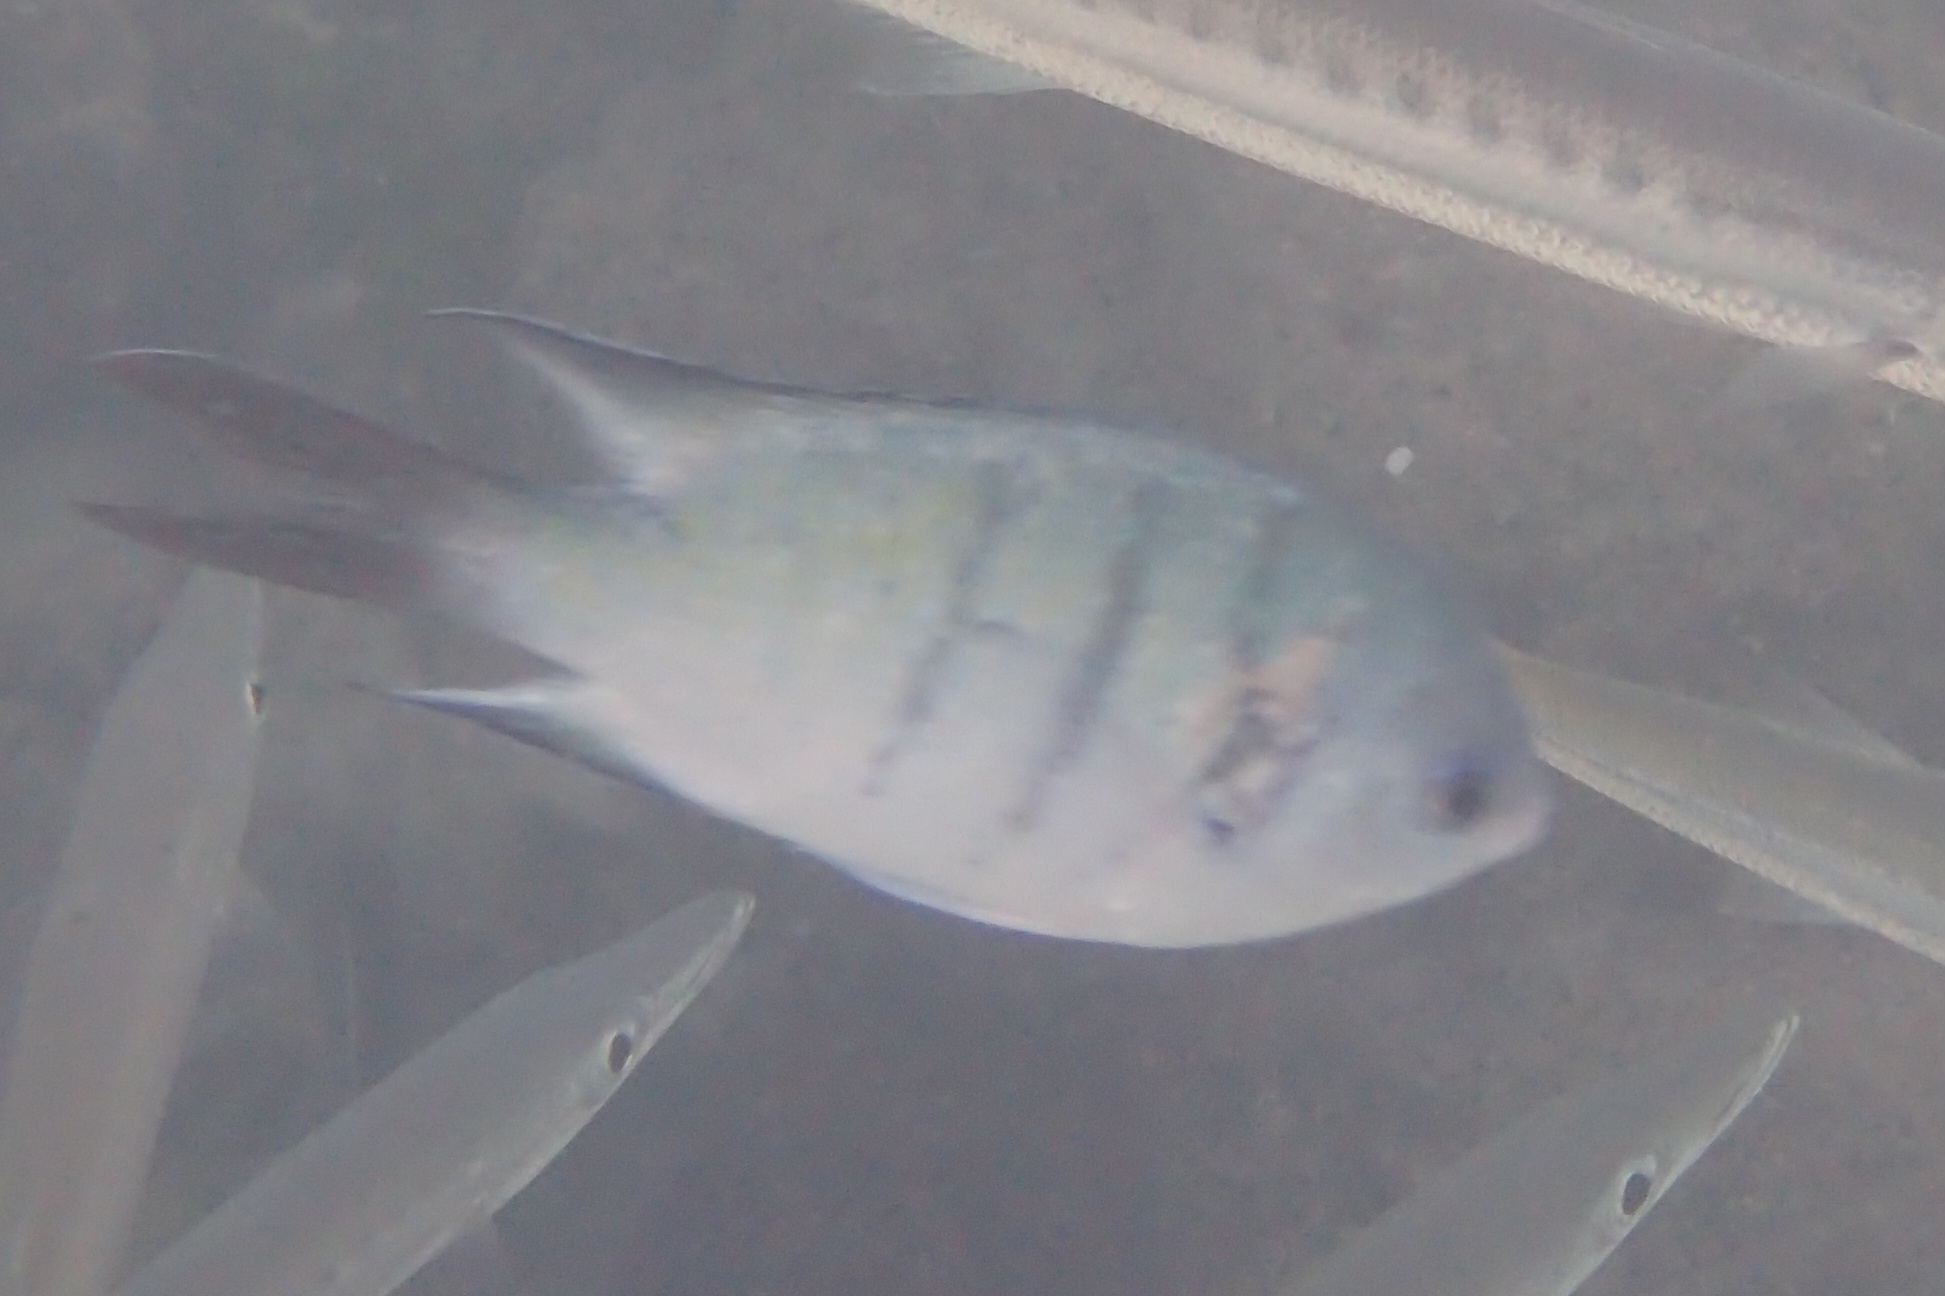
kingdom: Animalia
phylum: Chordata
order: Perciformes
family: Pomacentridae
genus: Abudefduf
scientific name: Abudefduf whitleyi
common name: Whitley's seargent
